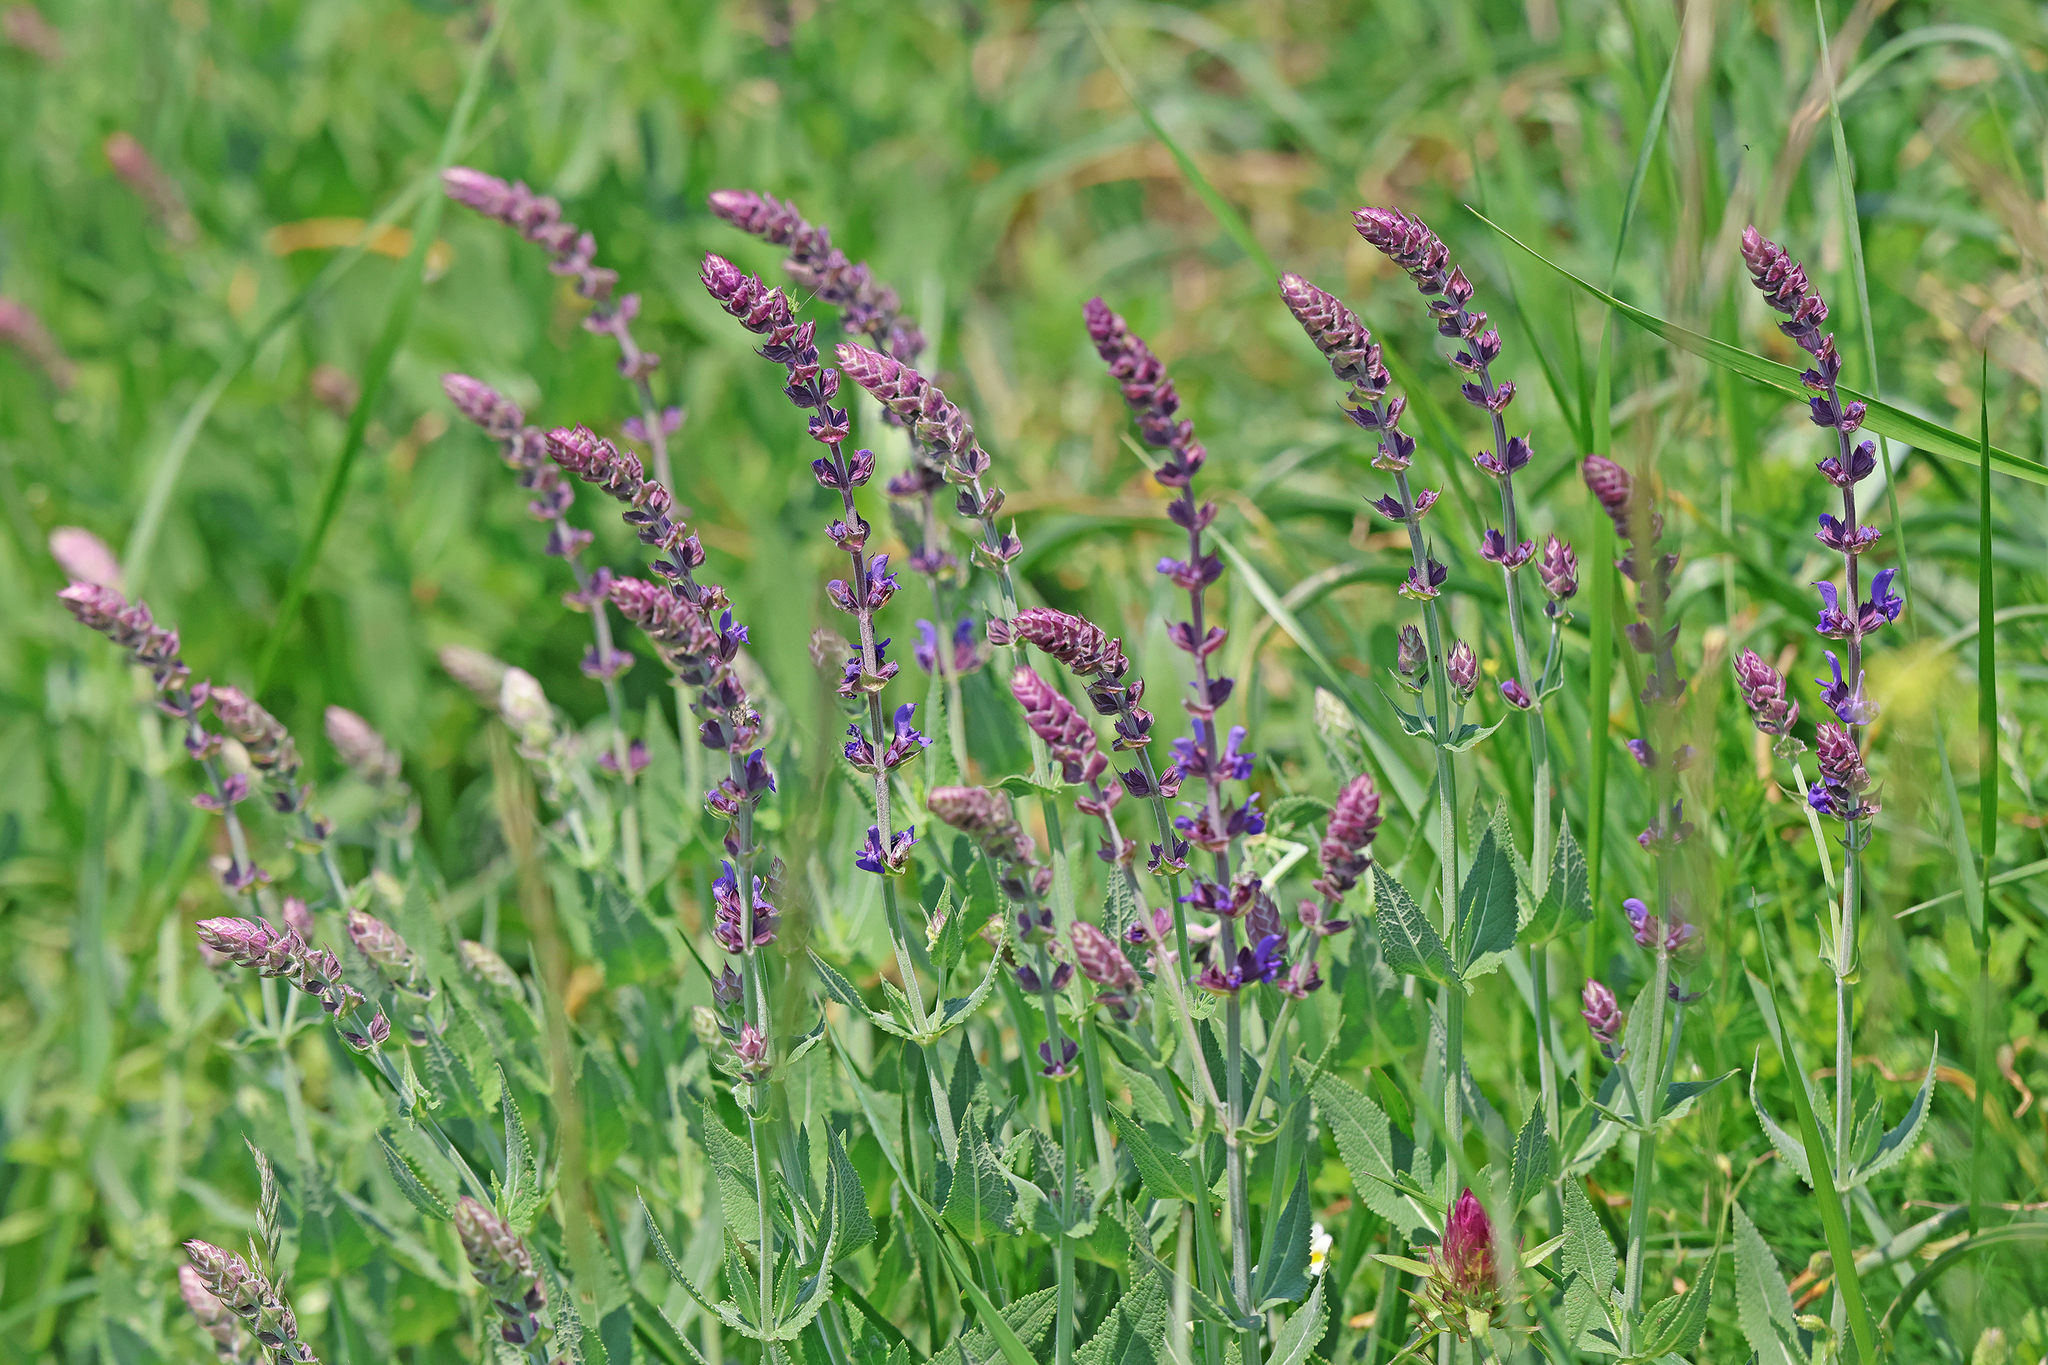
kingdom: Plantae
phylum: Tracheophyta
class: Magnoliopsida
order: Lamiales
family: Lamiaceae
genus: Salvia
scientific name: Salvia nemorosa
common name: Balkan clary
